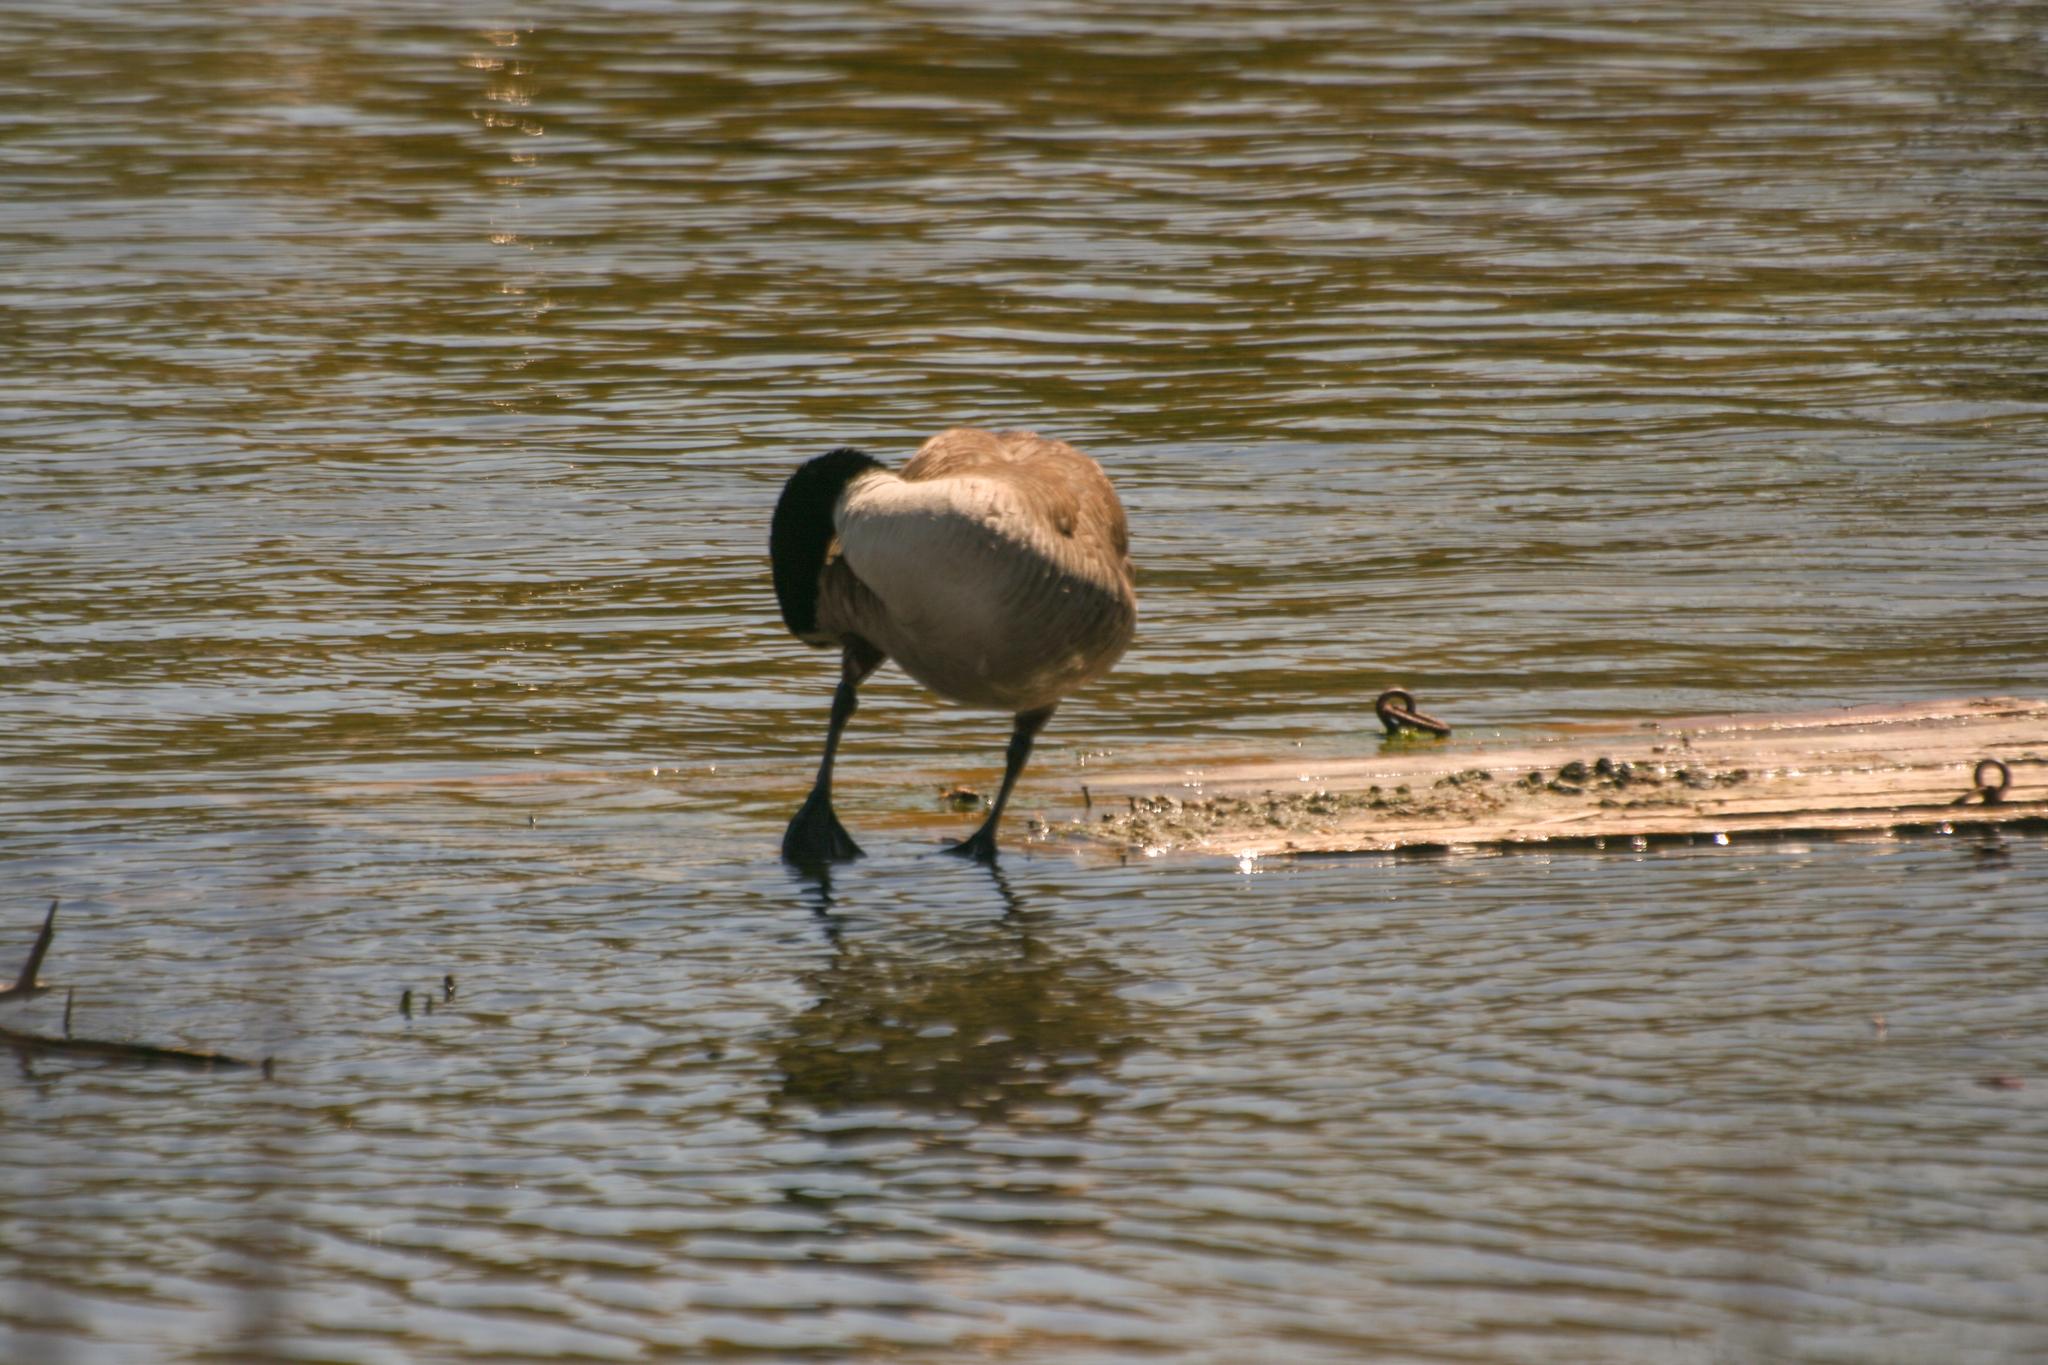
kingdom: Animalia
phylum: Chordata
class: Aves
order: Anseriformes
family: Anatidae
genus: Branta
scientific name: Branta canadensis
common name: Canada goose
